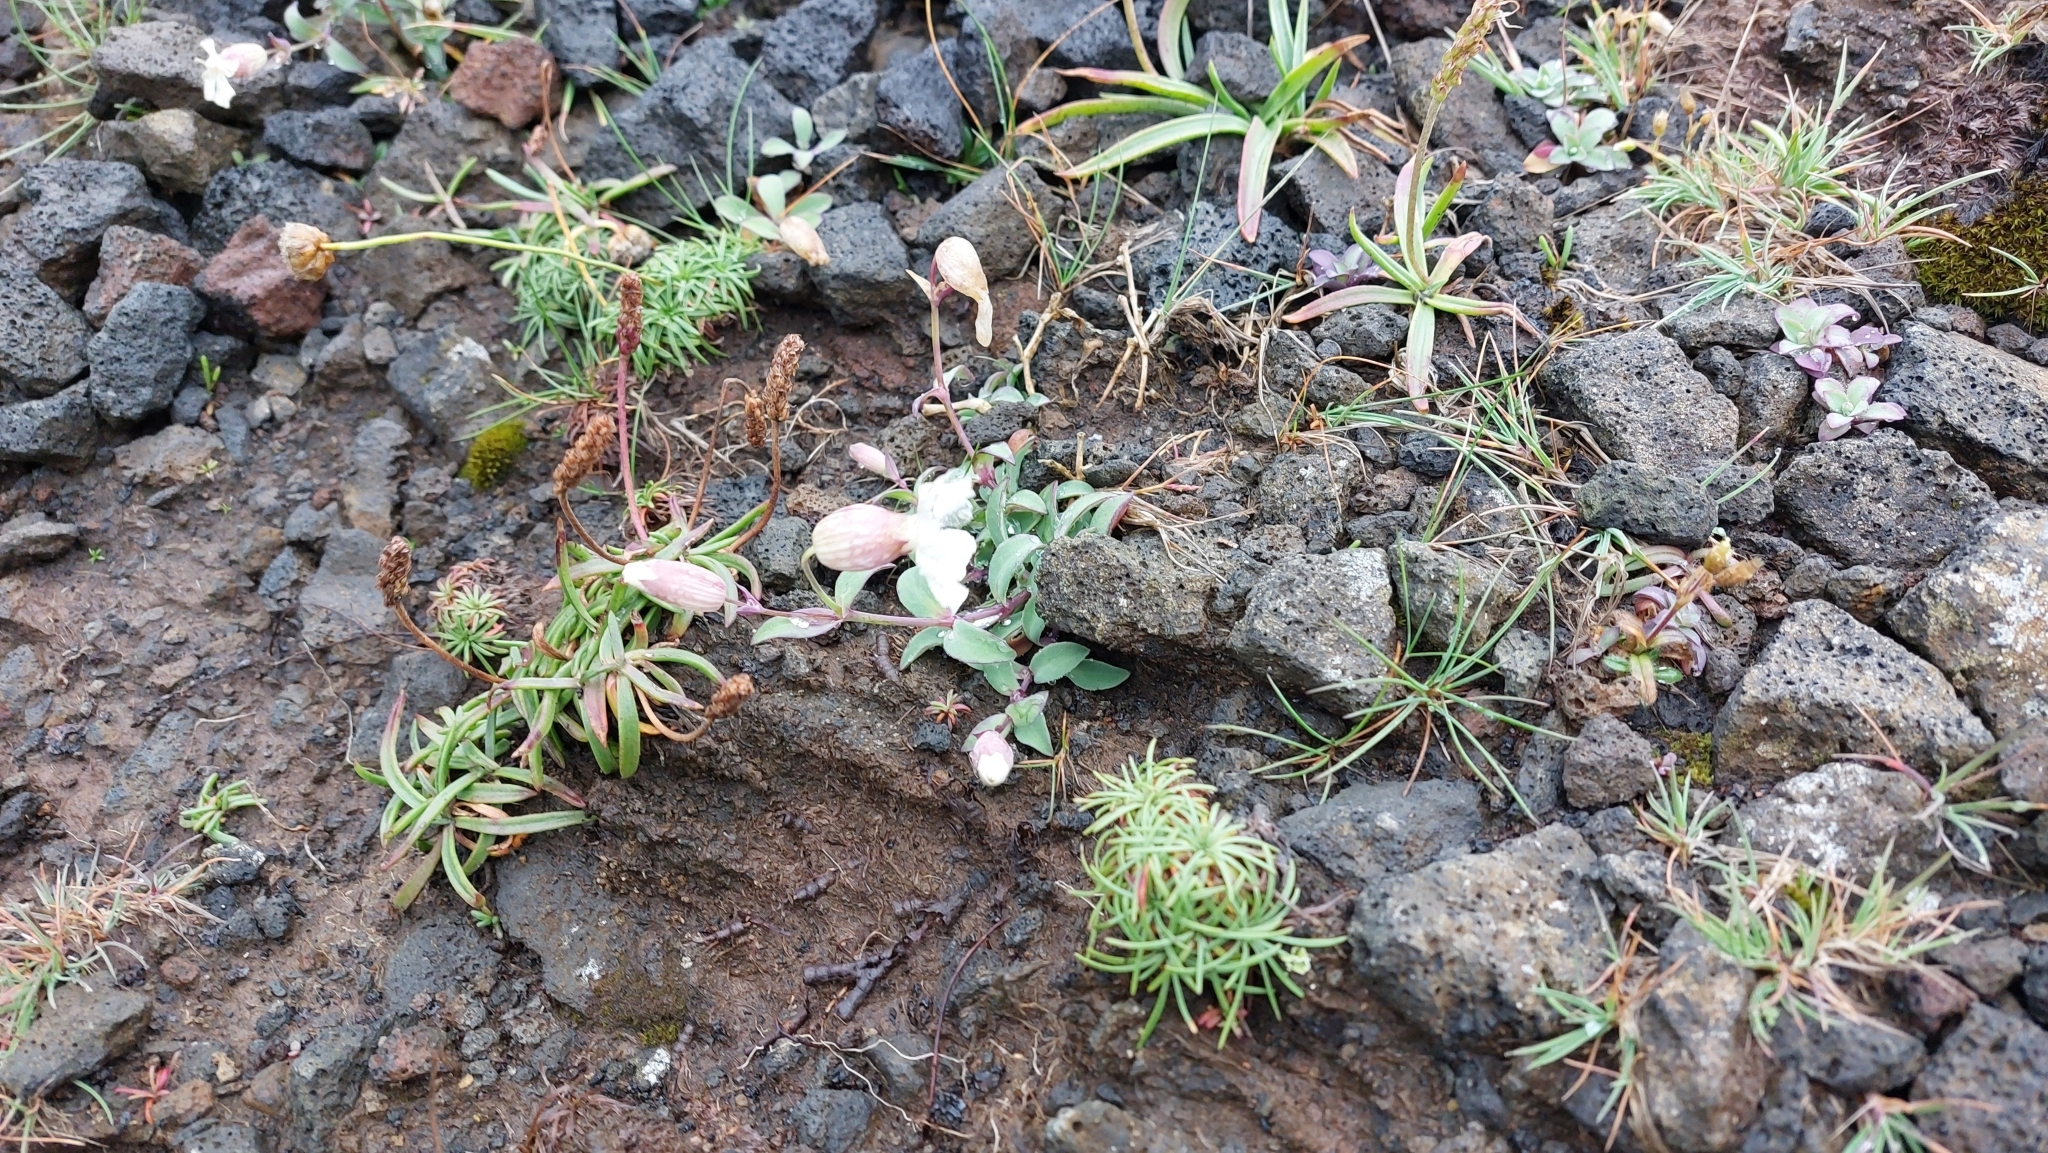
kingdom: Plantae
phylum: Tracheophyta
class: Magnoliopsida
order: Caryophyllales
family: Caryophyllaceae
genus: Silene
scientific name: Silene uniflora
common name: Sea campion
